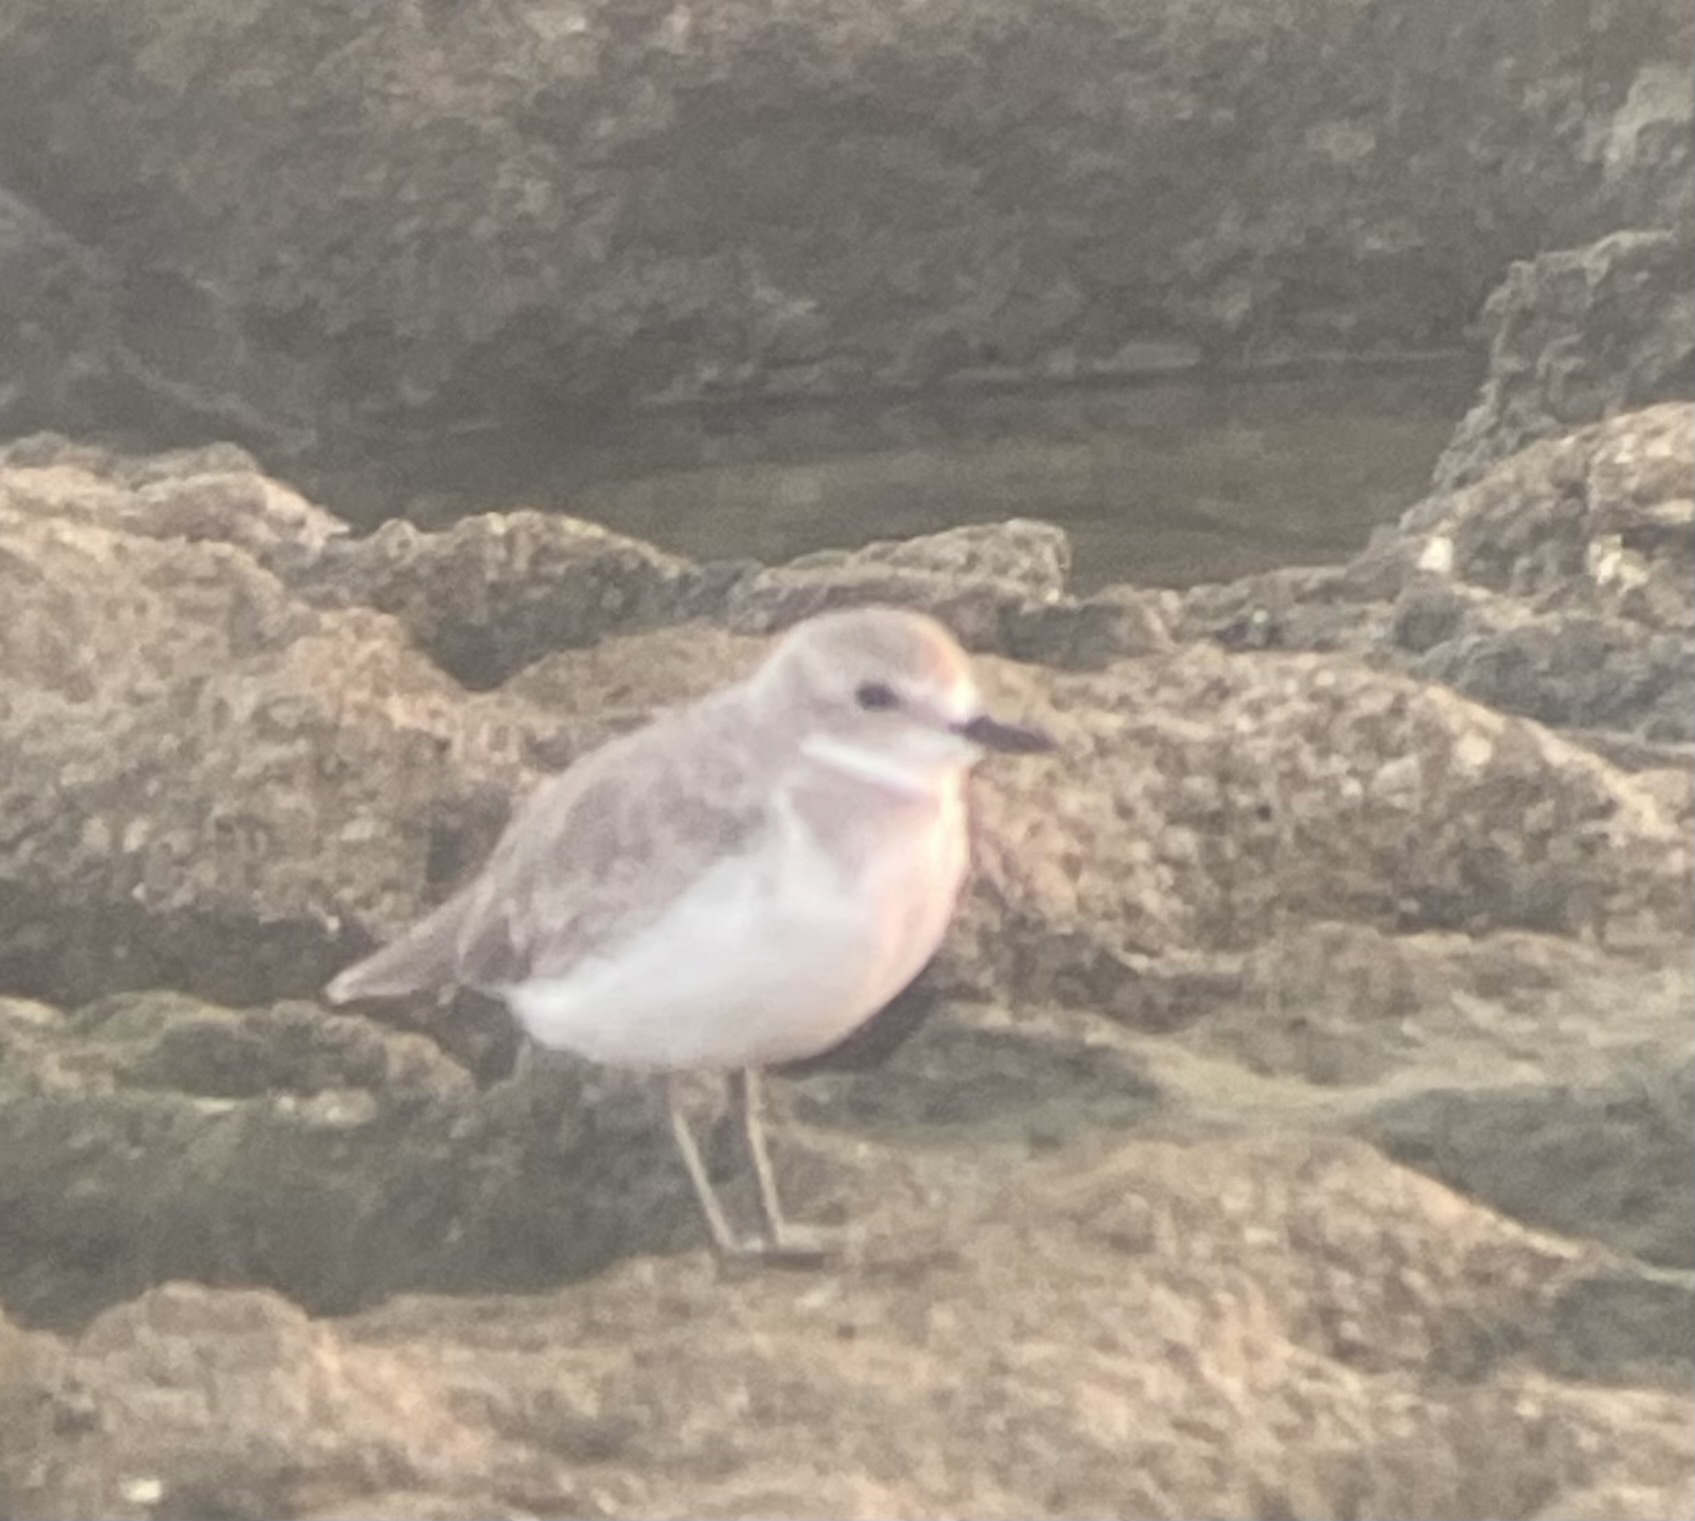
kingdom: Animalia
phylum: Chordata
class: Aves
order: Charadriiformes
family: Charadriidae
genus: Charadrius
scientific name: Charadrius leschenaultii
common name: Greater sand plover
